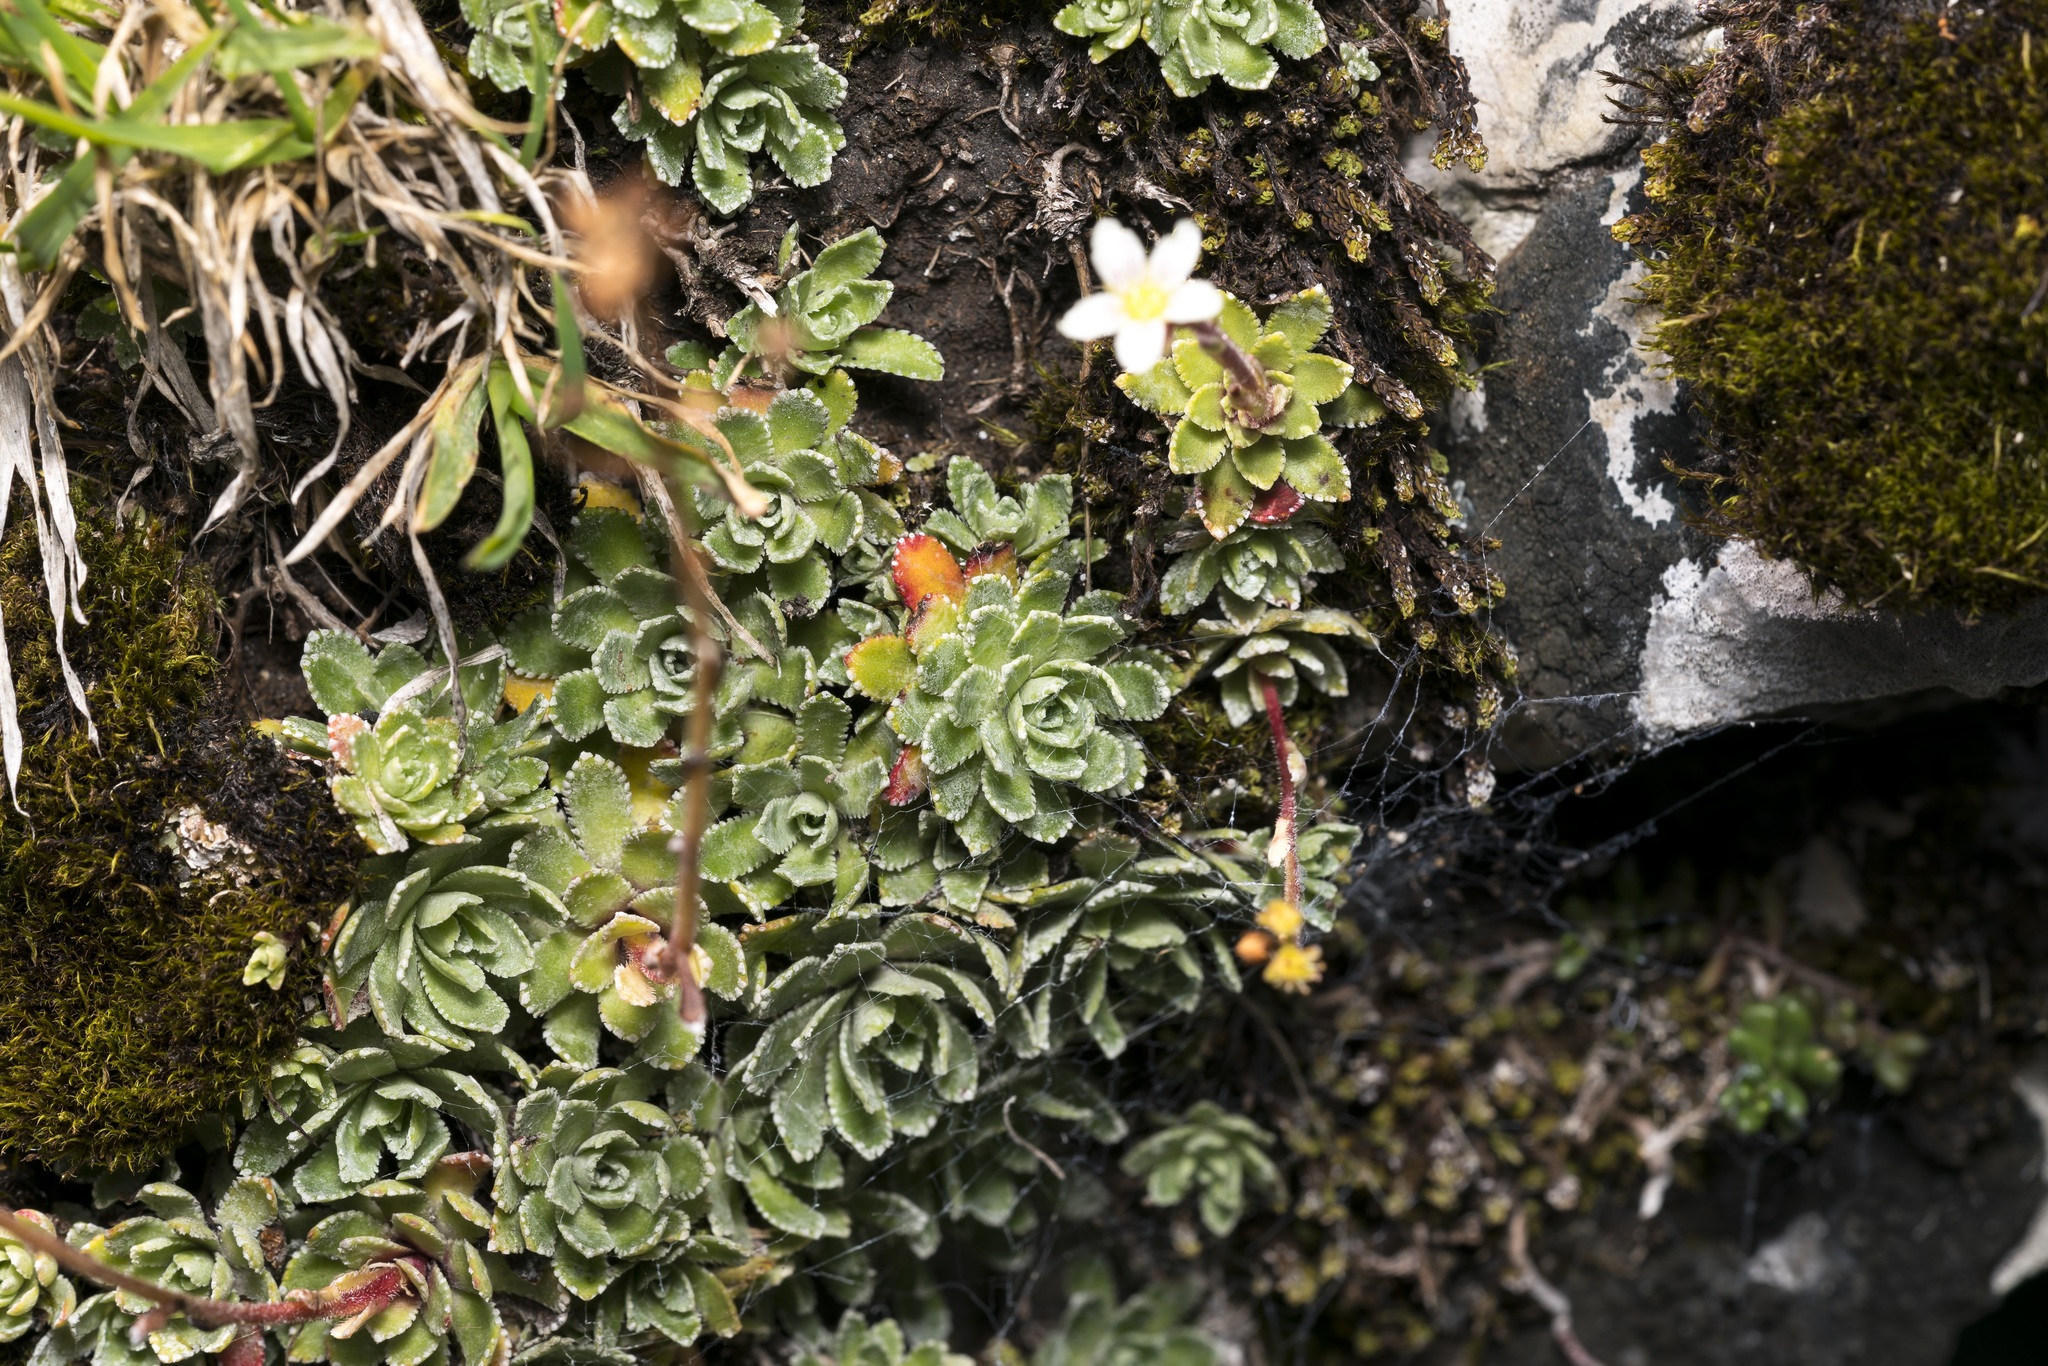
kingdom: Plantae
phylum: Tracheophyta
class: Magnoliopsida
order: Saxifragales
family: Saxifragaceae
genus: Saxifraga
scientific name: Saxifraga paniculata
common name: Livelong saxifrage
